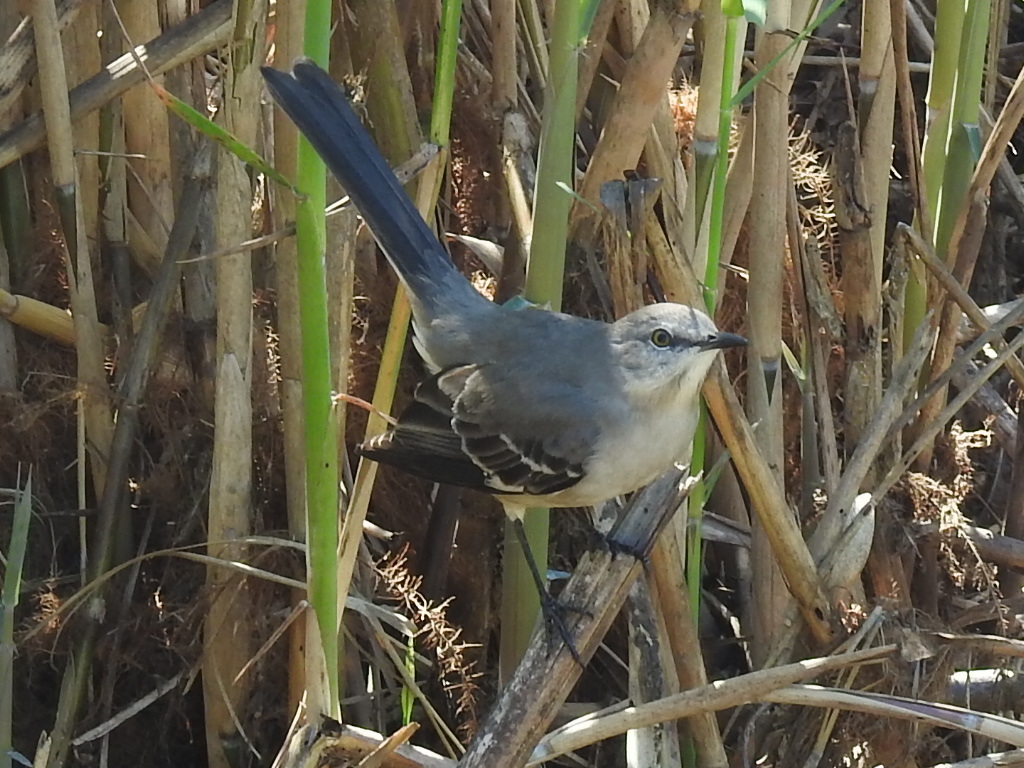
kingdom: Animalia
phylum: Chordata
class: Aves
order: Passeriformes
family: Mimidae
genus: Mimus
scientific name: Mimus polyglottos
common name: Northern mockingbird
